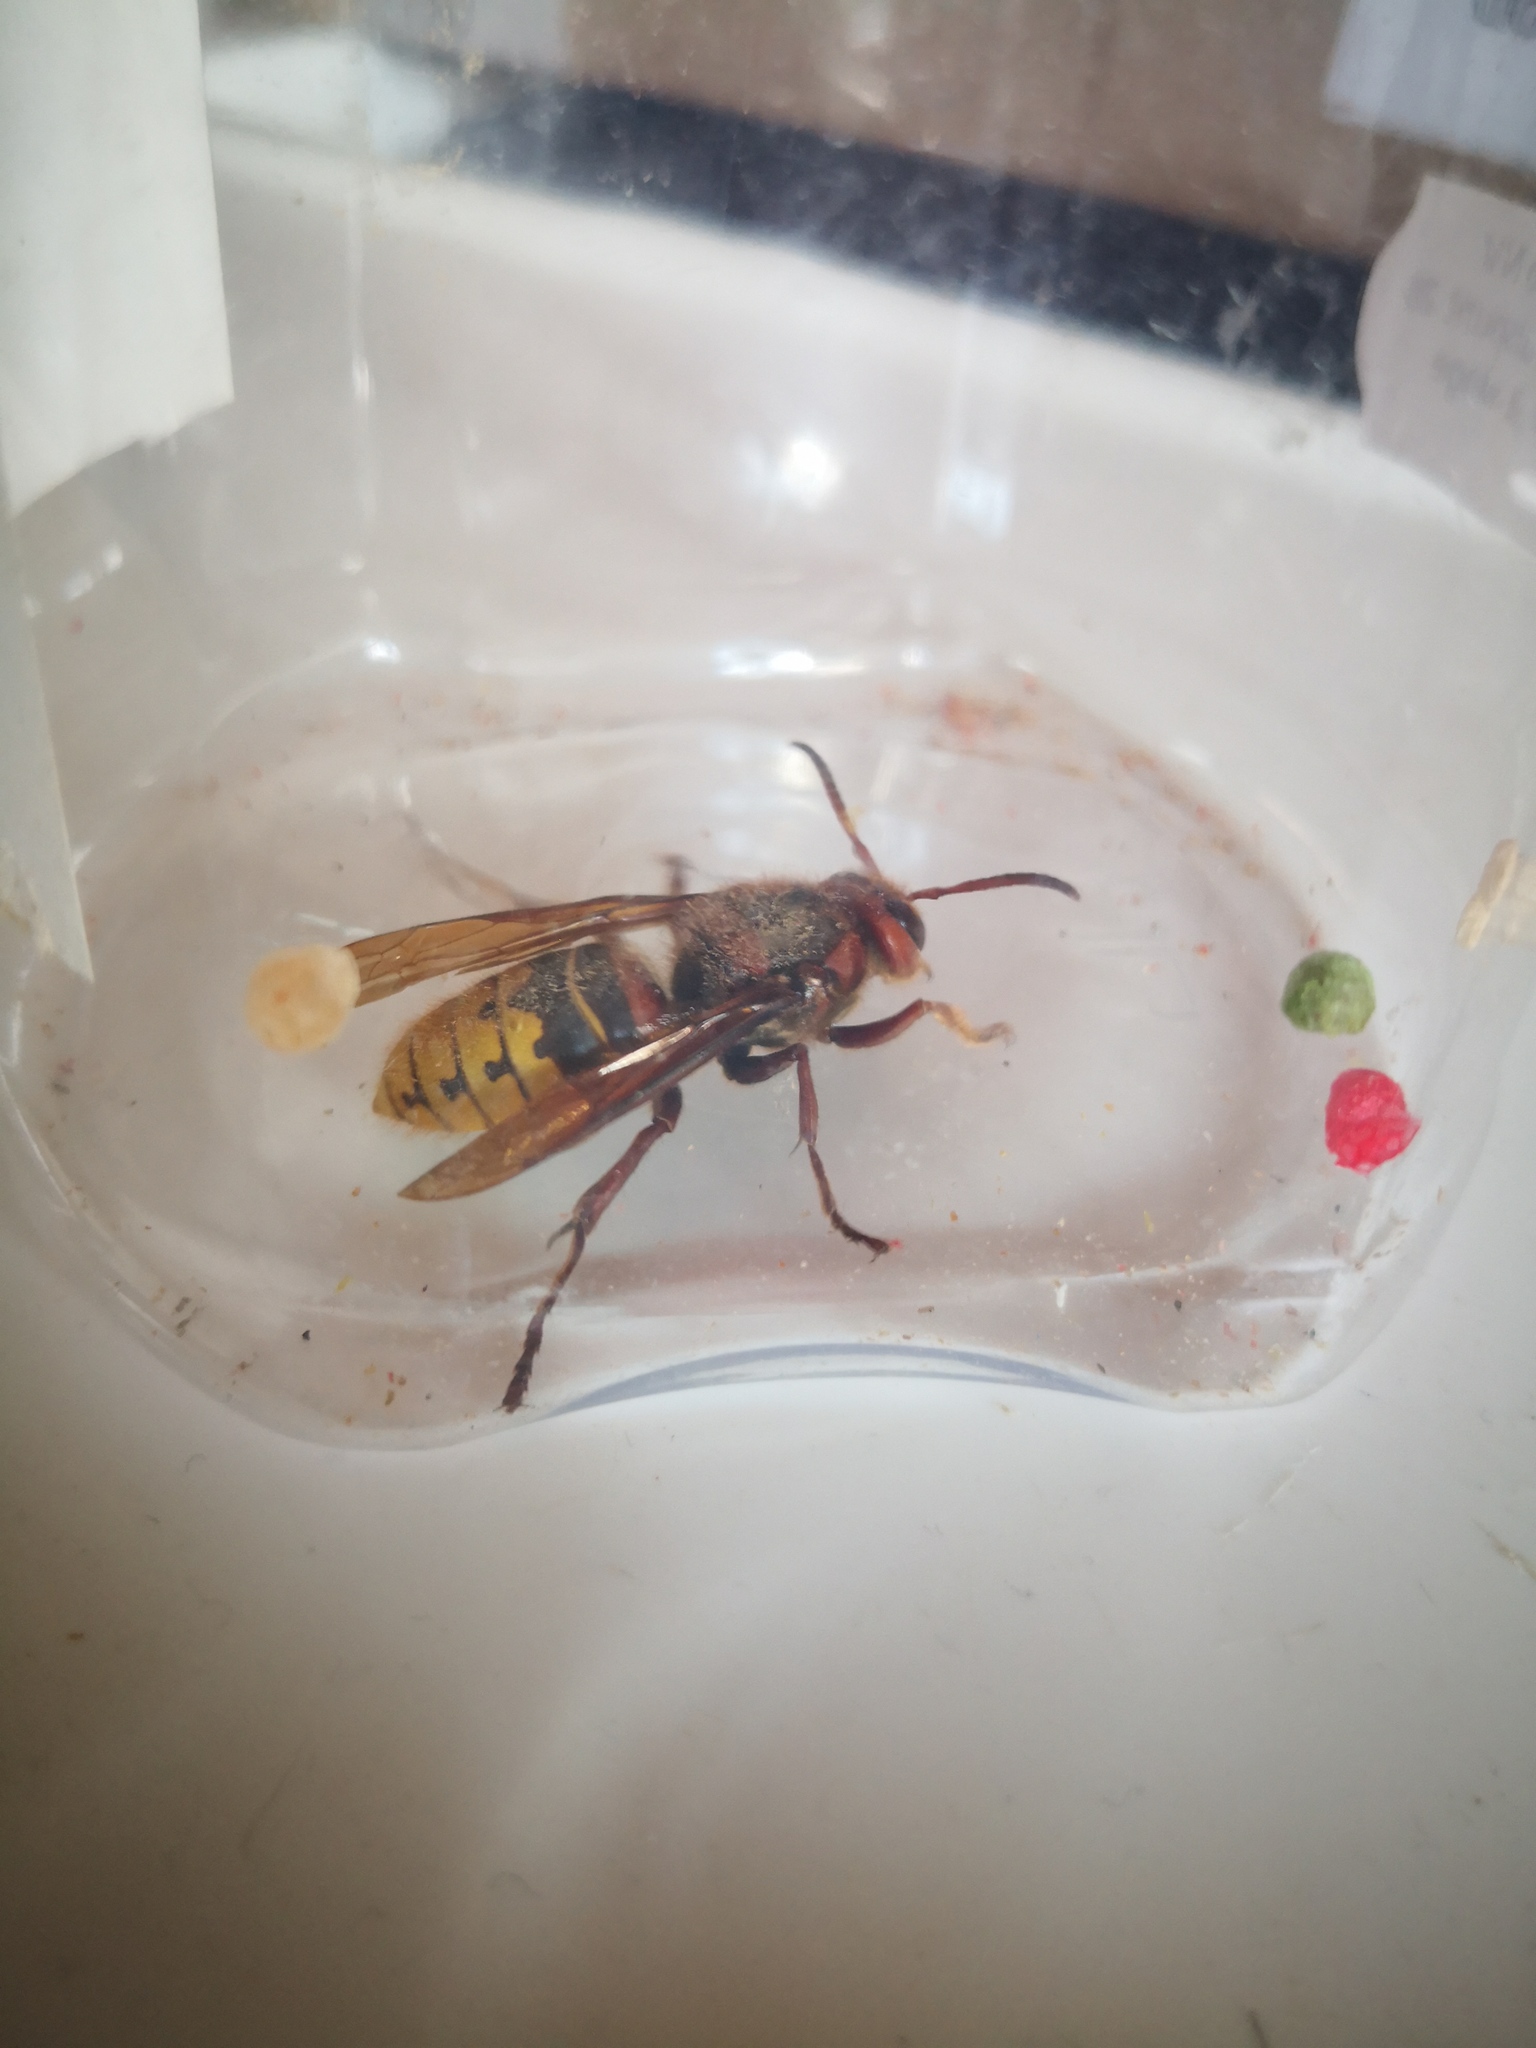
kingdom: Animalia
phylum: Arthropoda
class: Insecta
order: Hymenoptera
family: Vespidae
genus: Vespa
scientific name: Vespa crabro
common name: Hornet
